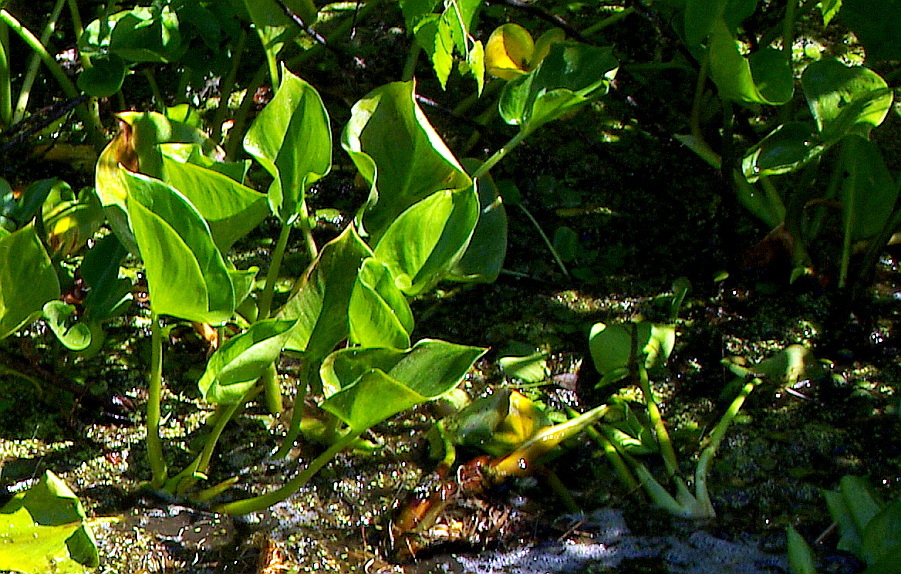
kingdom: Plantae
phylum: Tracheophyta
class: Liliopsida
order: Alismatales
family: Araceae
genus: Calla
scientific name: Calla palustris
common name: Bog arum
